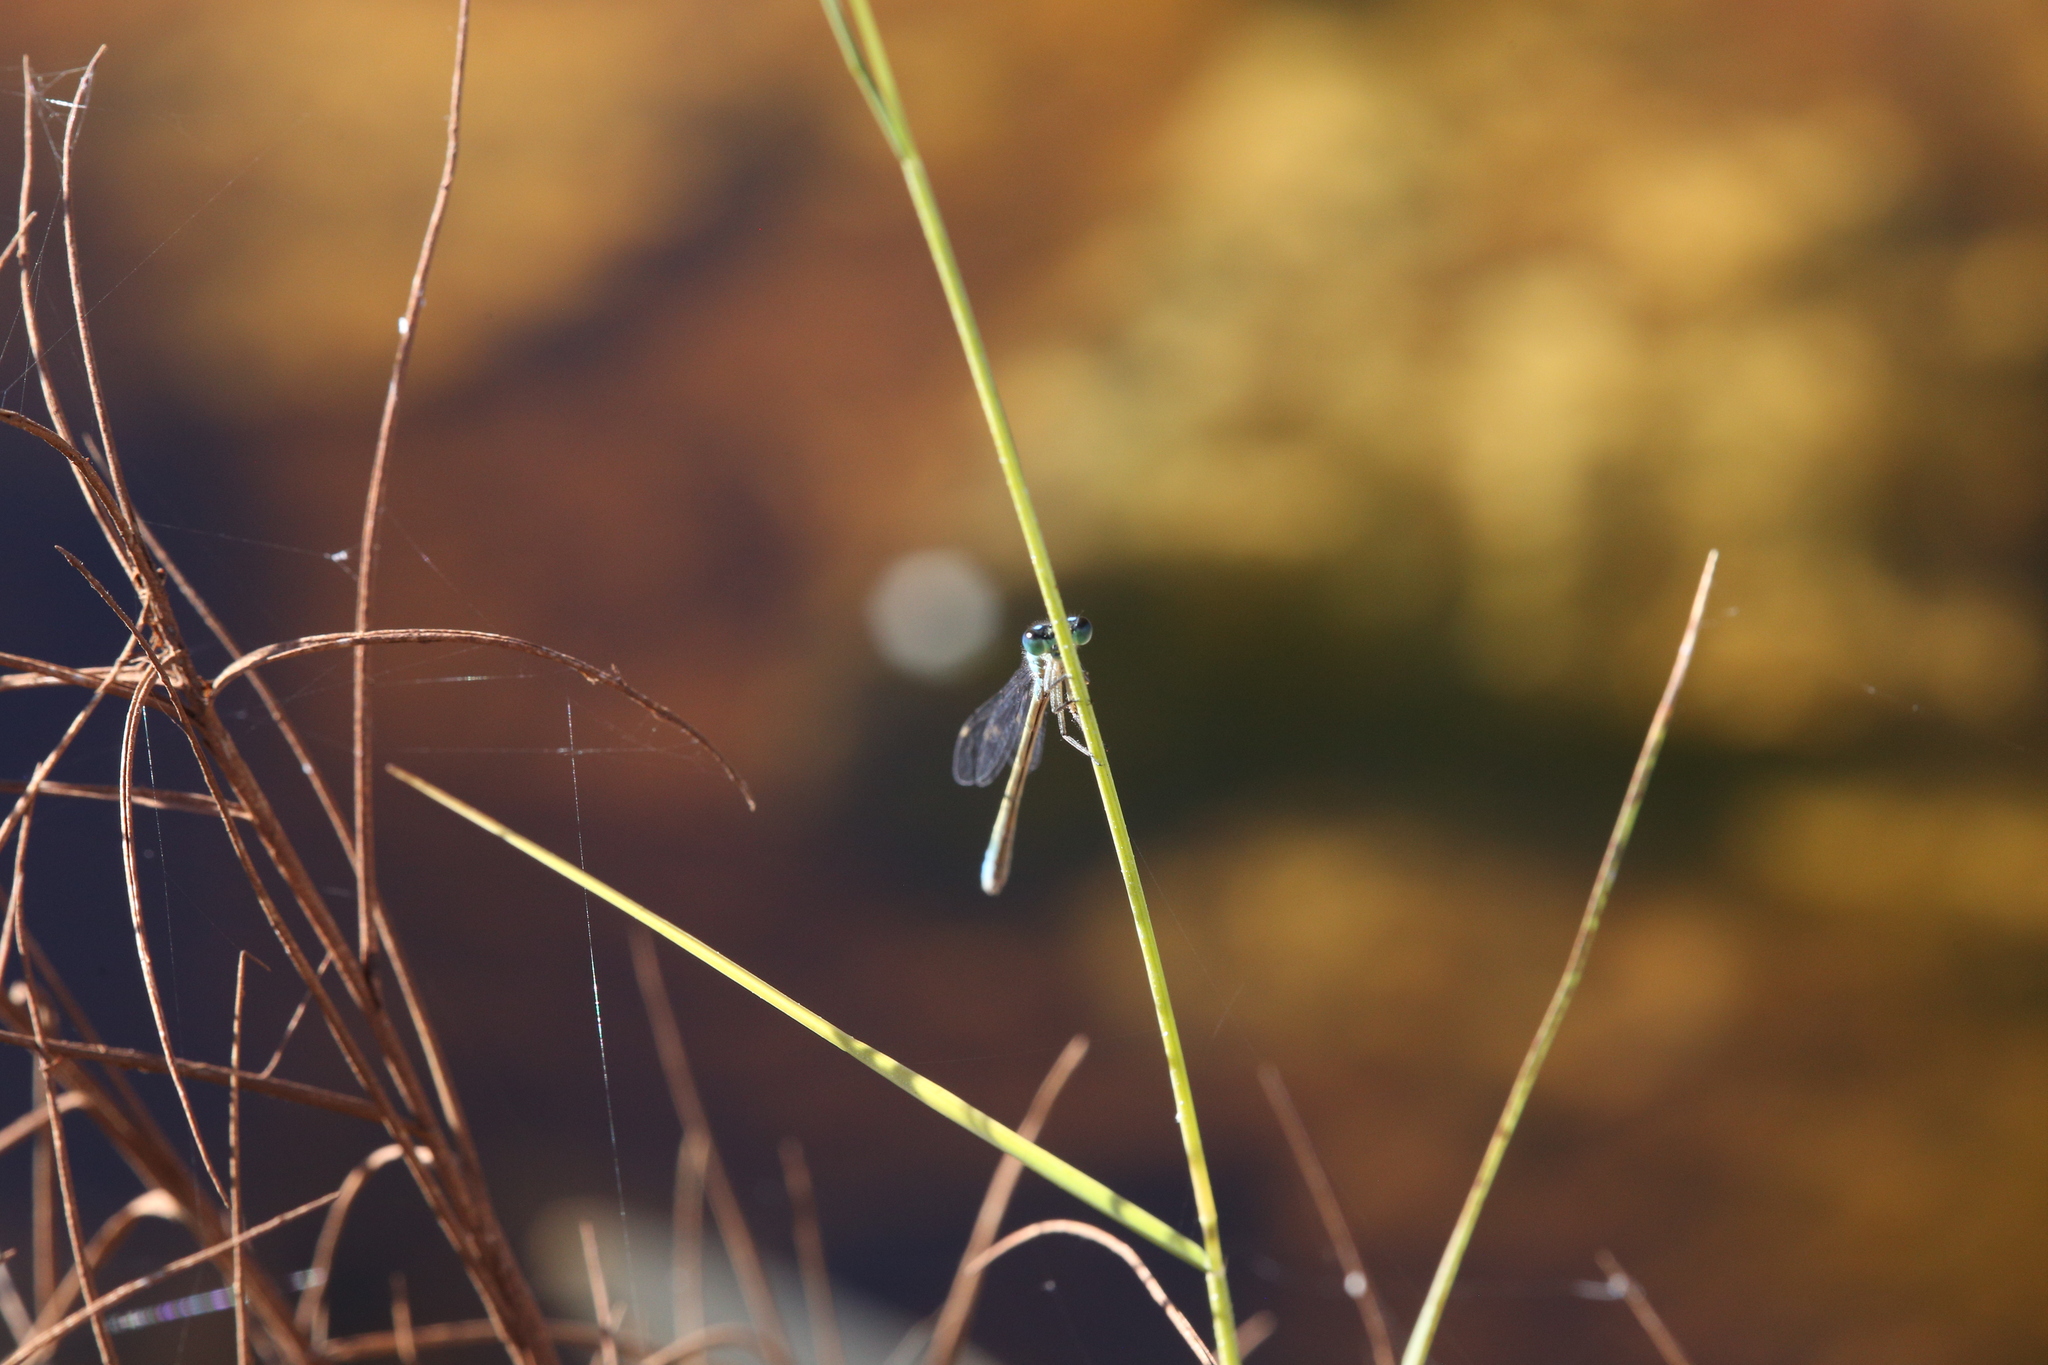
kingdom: Animalia
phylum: Arthropoda
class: Insecta
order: Odonata
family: Coenagrionidae
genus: Ischnura
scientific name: Ischnura heterosticta
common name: Common bluetail
